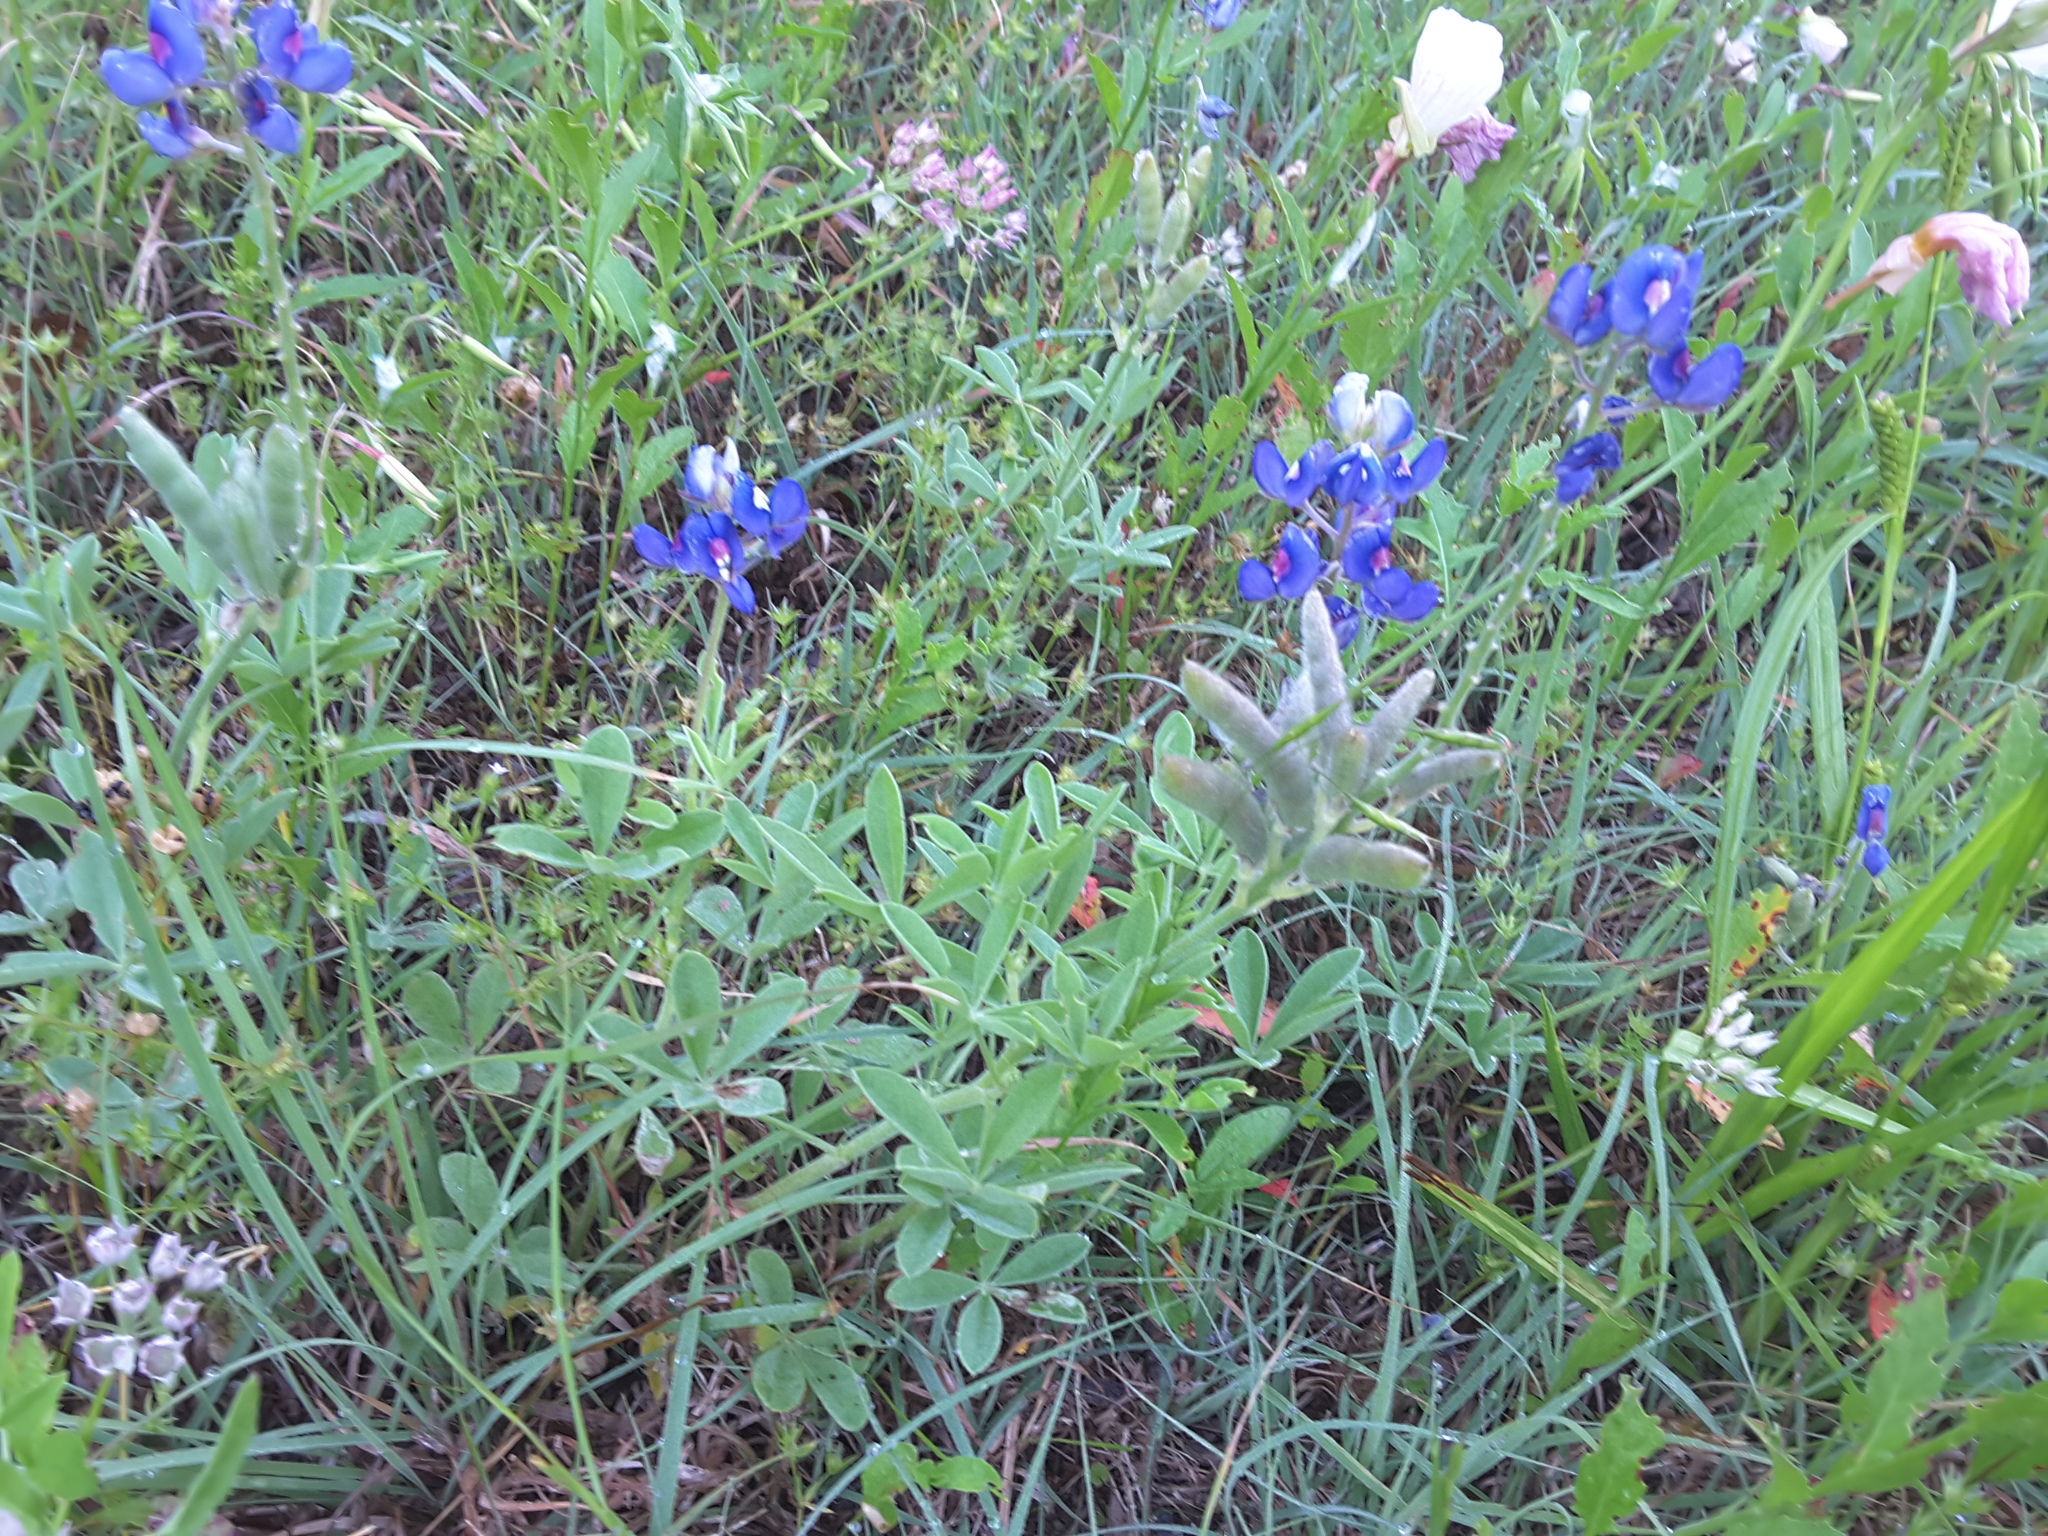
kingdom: Plantae
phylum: Tracheophyta
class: Magnoliopsida
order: Fabales
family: Fabaceae
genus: Lupinus
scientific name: Lupinus texensis
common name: Texas bluebonnet
